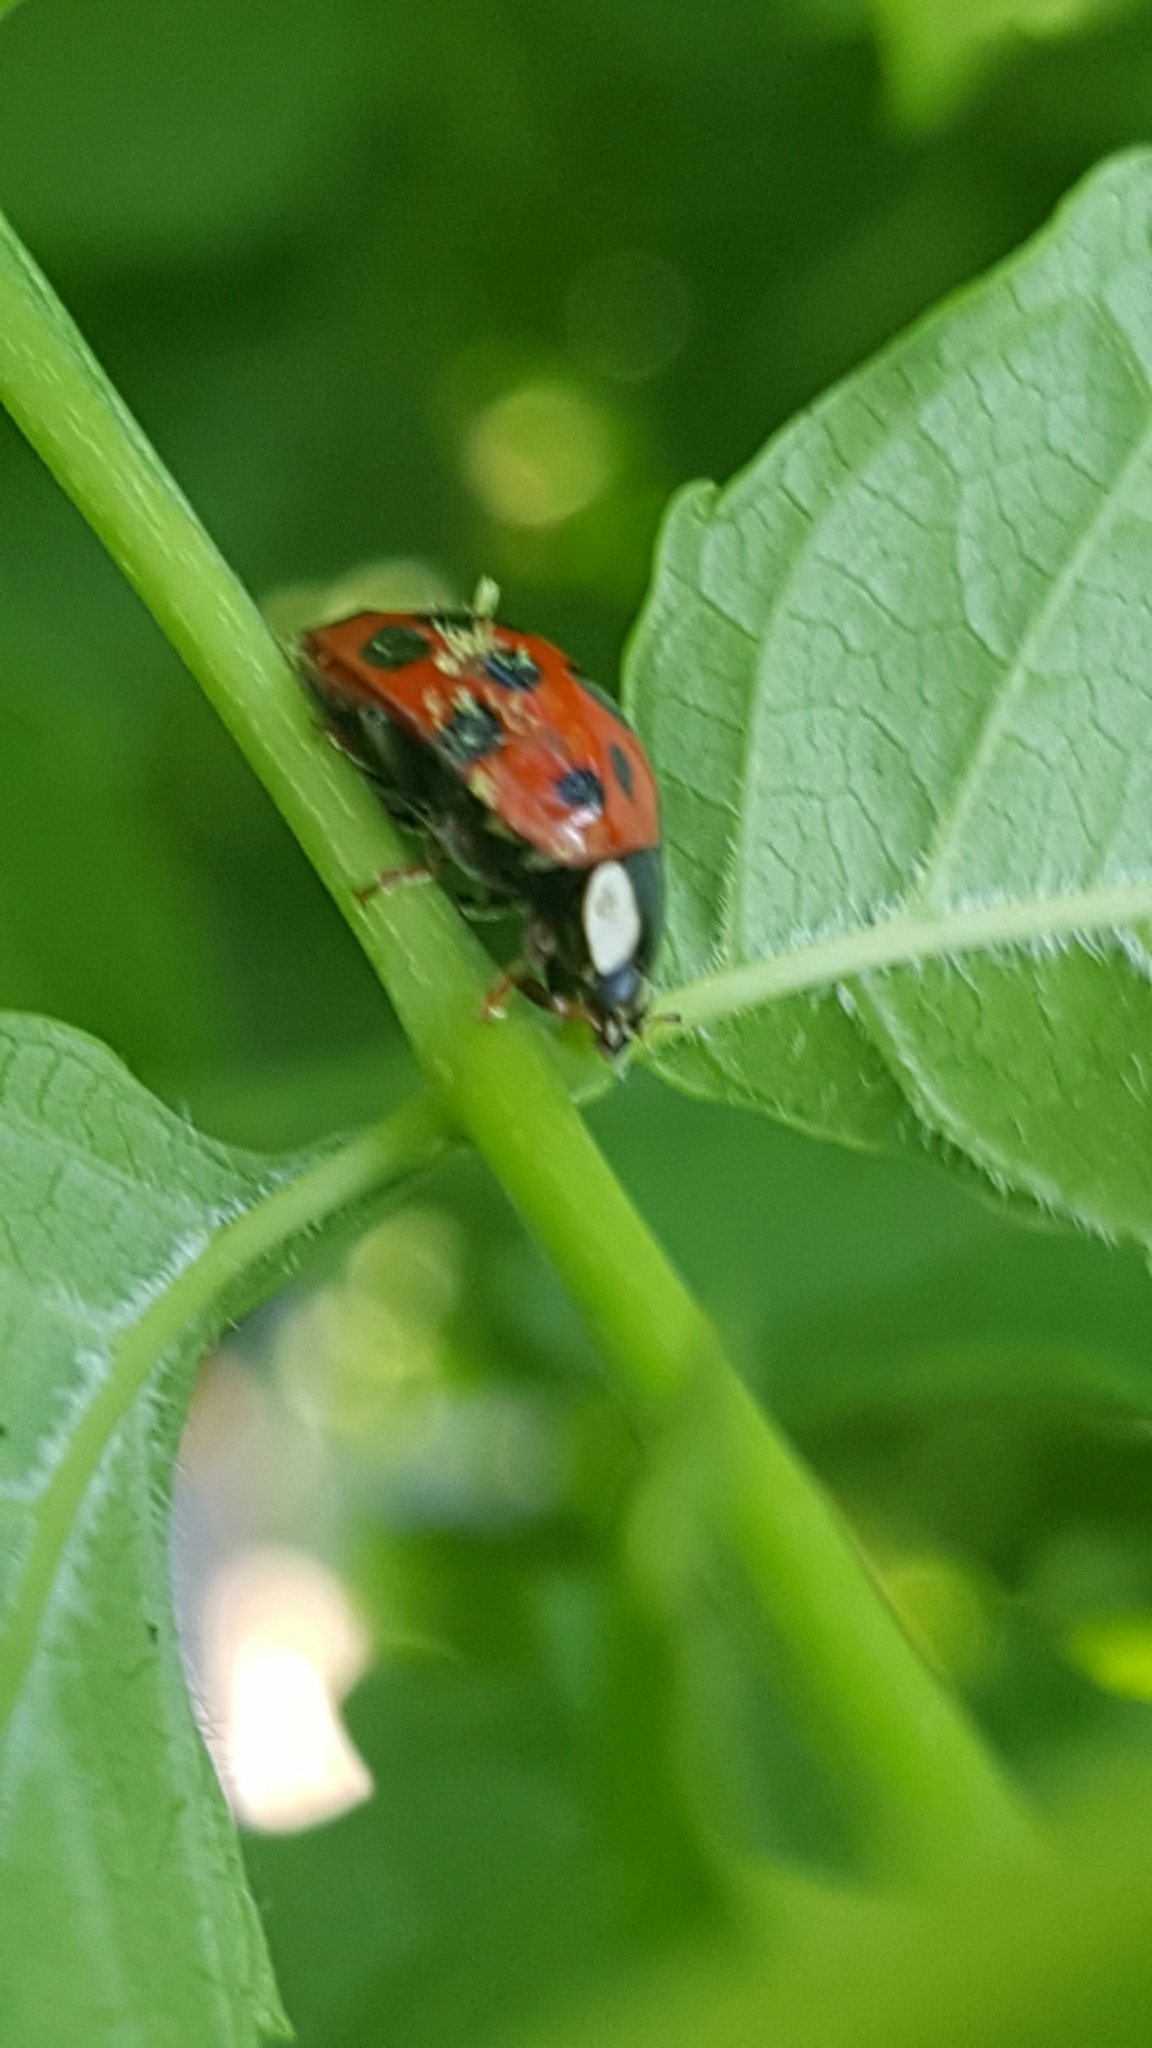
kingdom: Animalia
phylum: Arthropoda
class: Insecta
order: Coleoptera
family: Coccinellidae
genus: Harmonia
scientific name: Harmonia axyridis
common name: Harlequin ladybird
